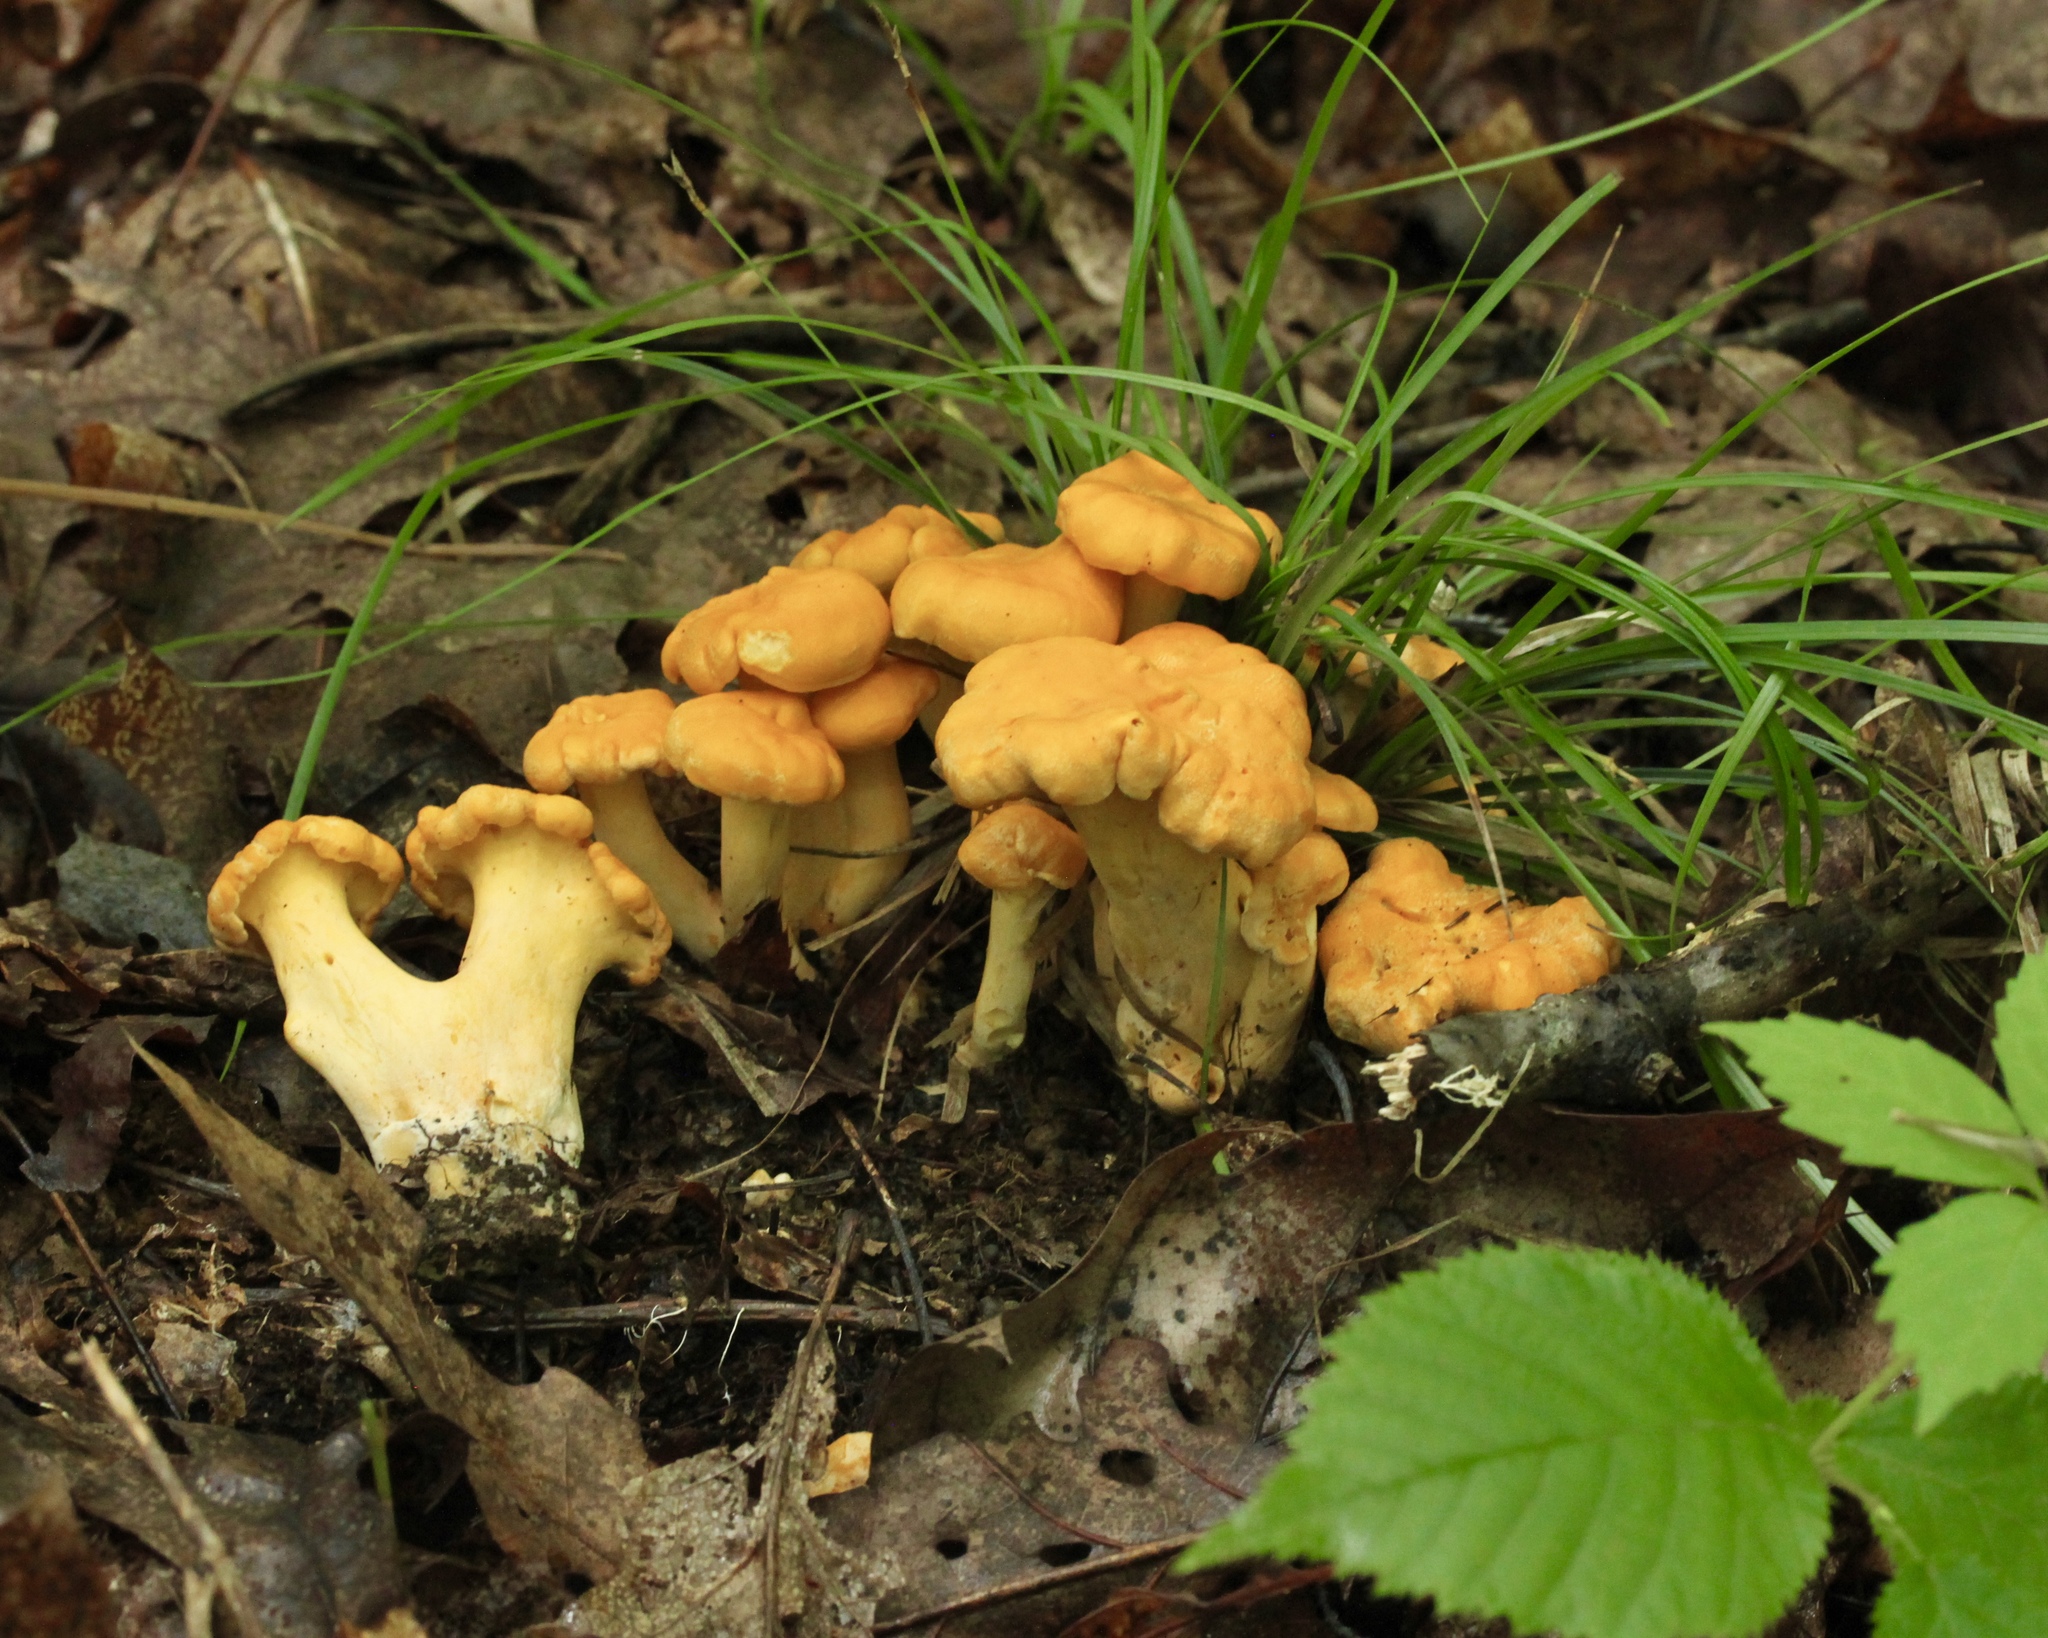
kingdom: Fungi
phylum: Basidiomycota
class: Agaricomycetes
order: Cantharellales
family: Hydnaceae
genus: Cantharellus
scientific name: Cantharellus lateritius
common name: Smooth chanterelle
